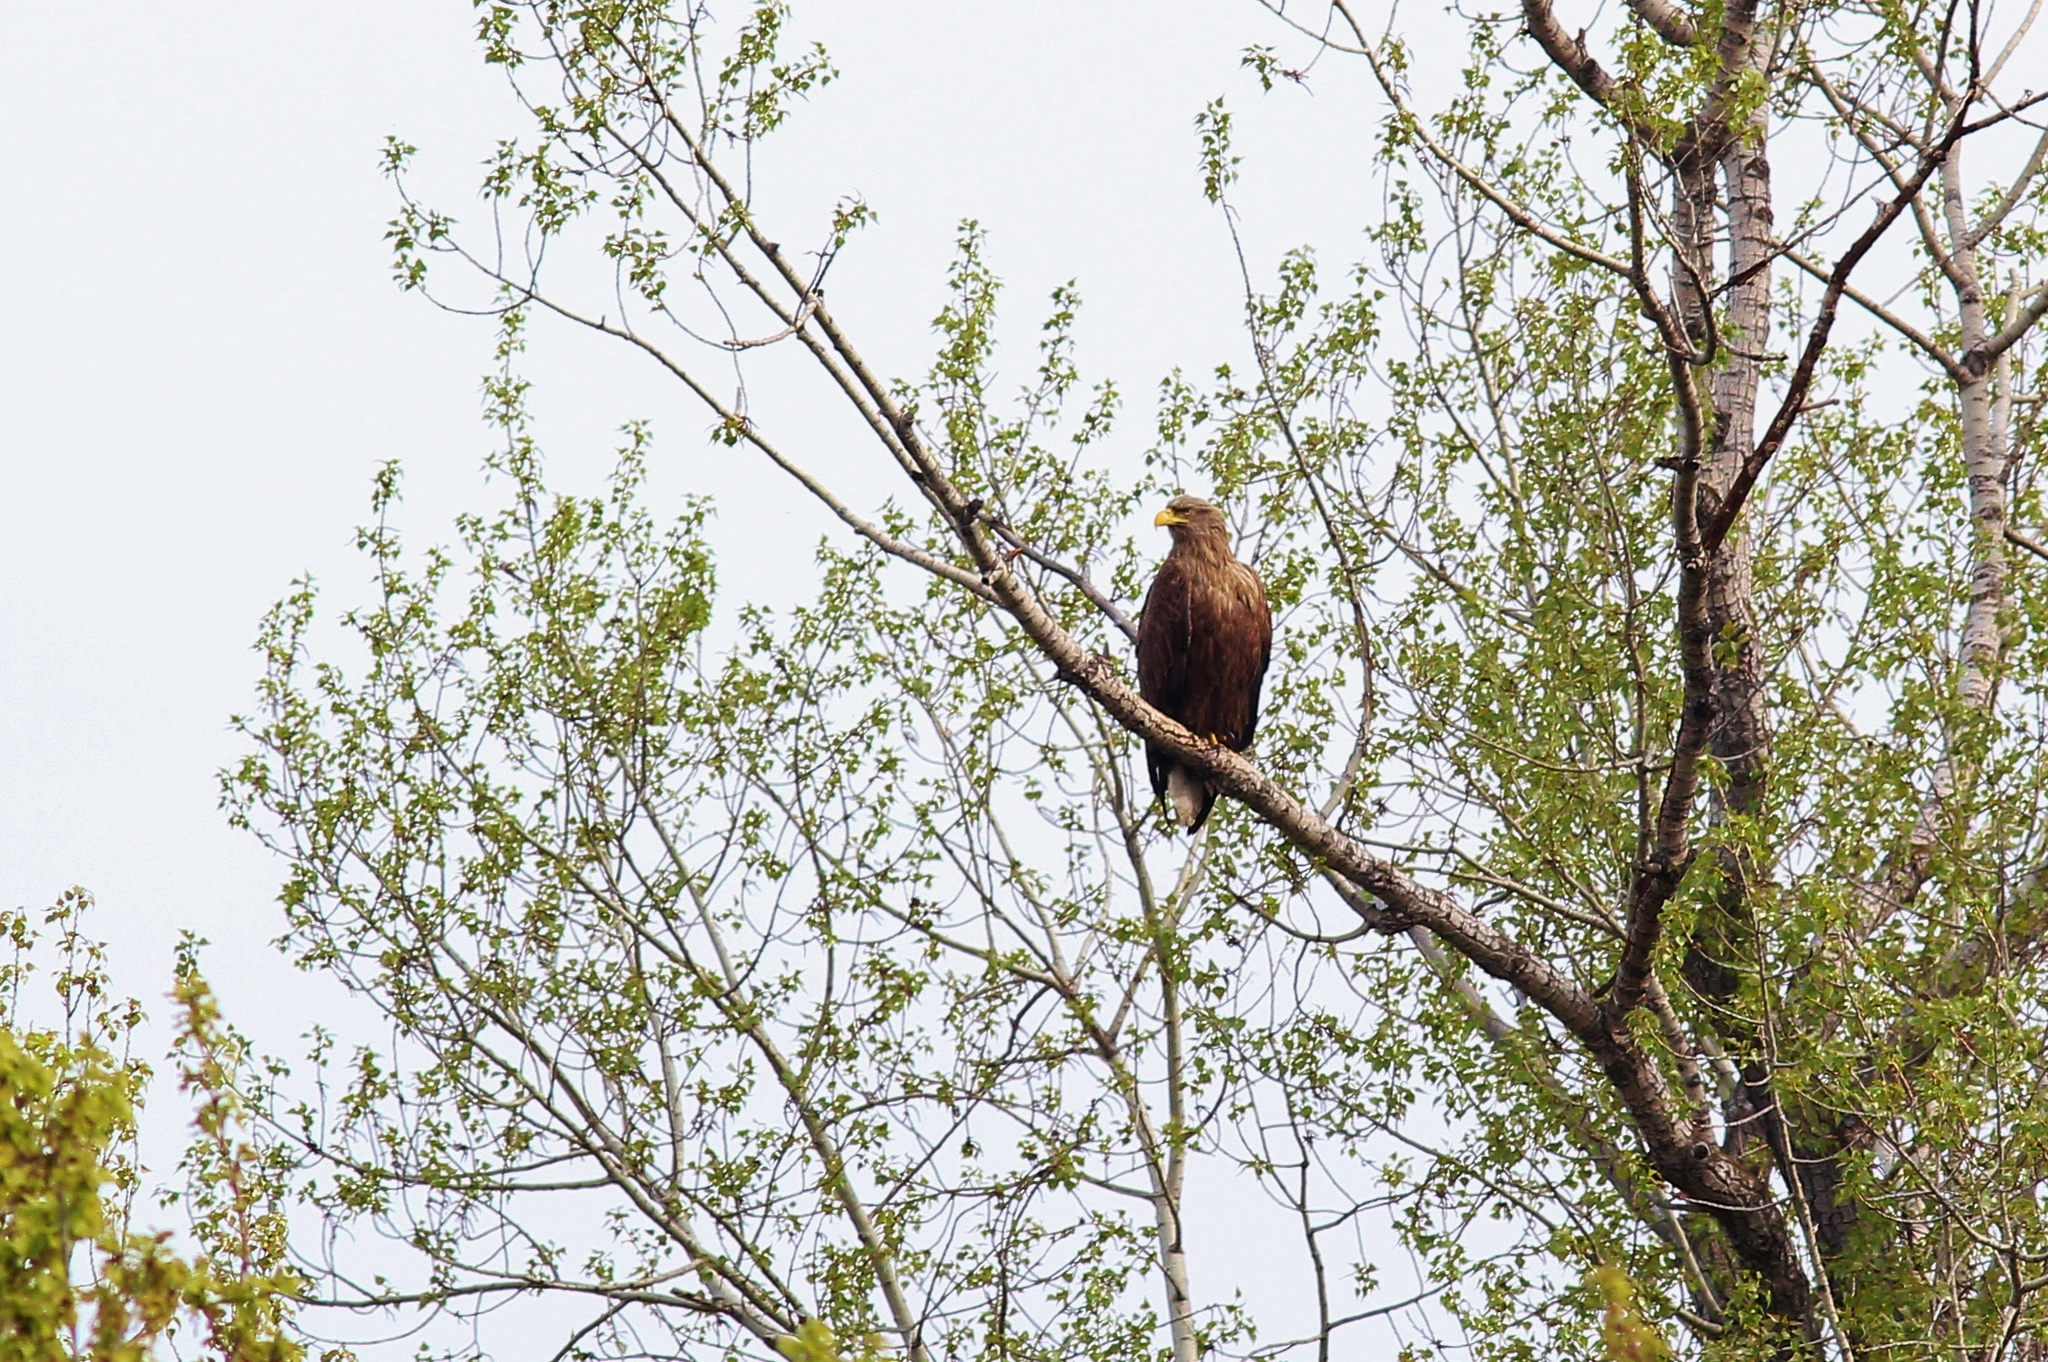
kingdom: Animalia
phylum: Chordata
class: Aves
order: Accipitriformes
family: Accipitridae
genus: Haliaeetus
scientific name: Haliaeetus albicilla
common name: White-tailed eagle
